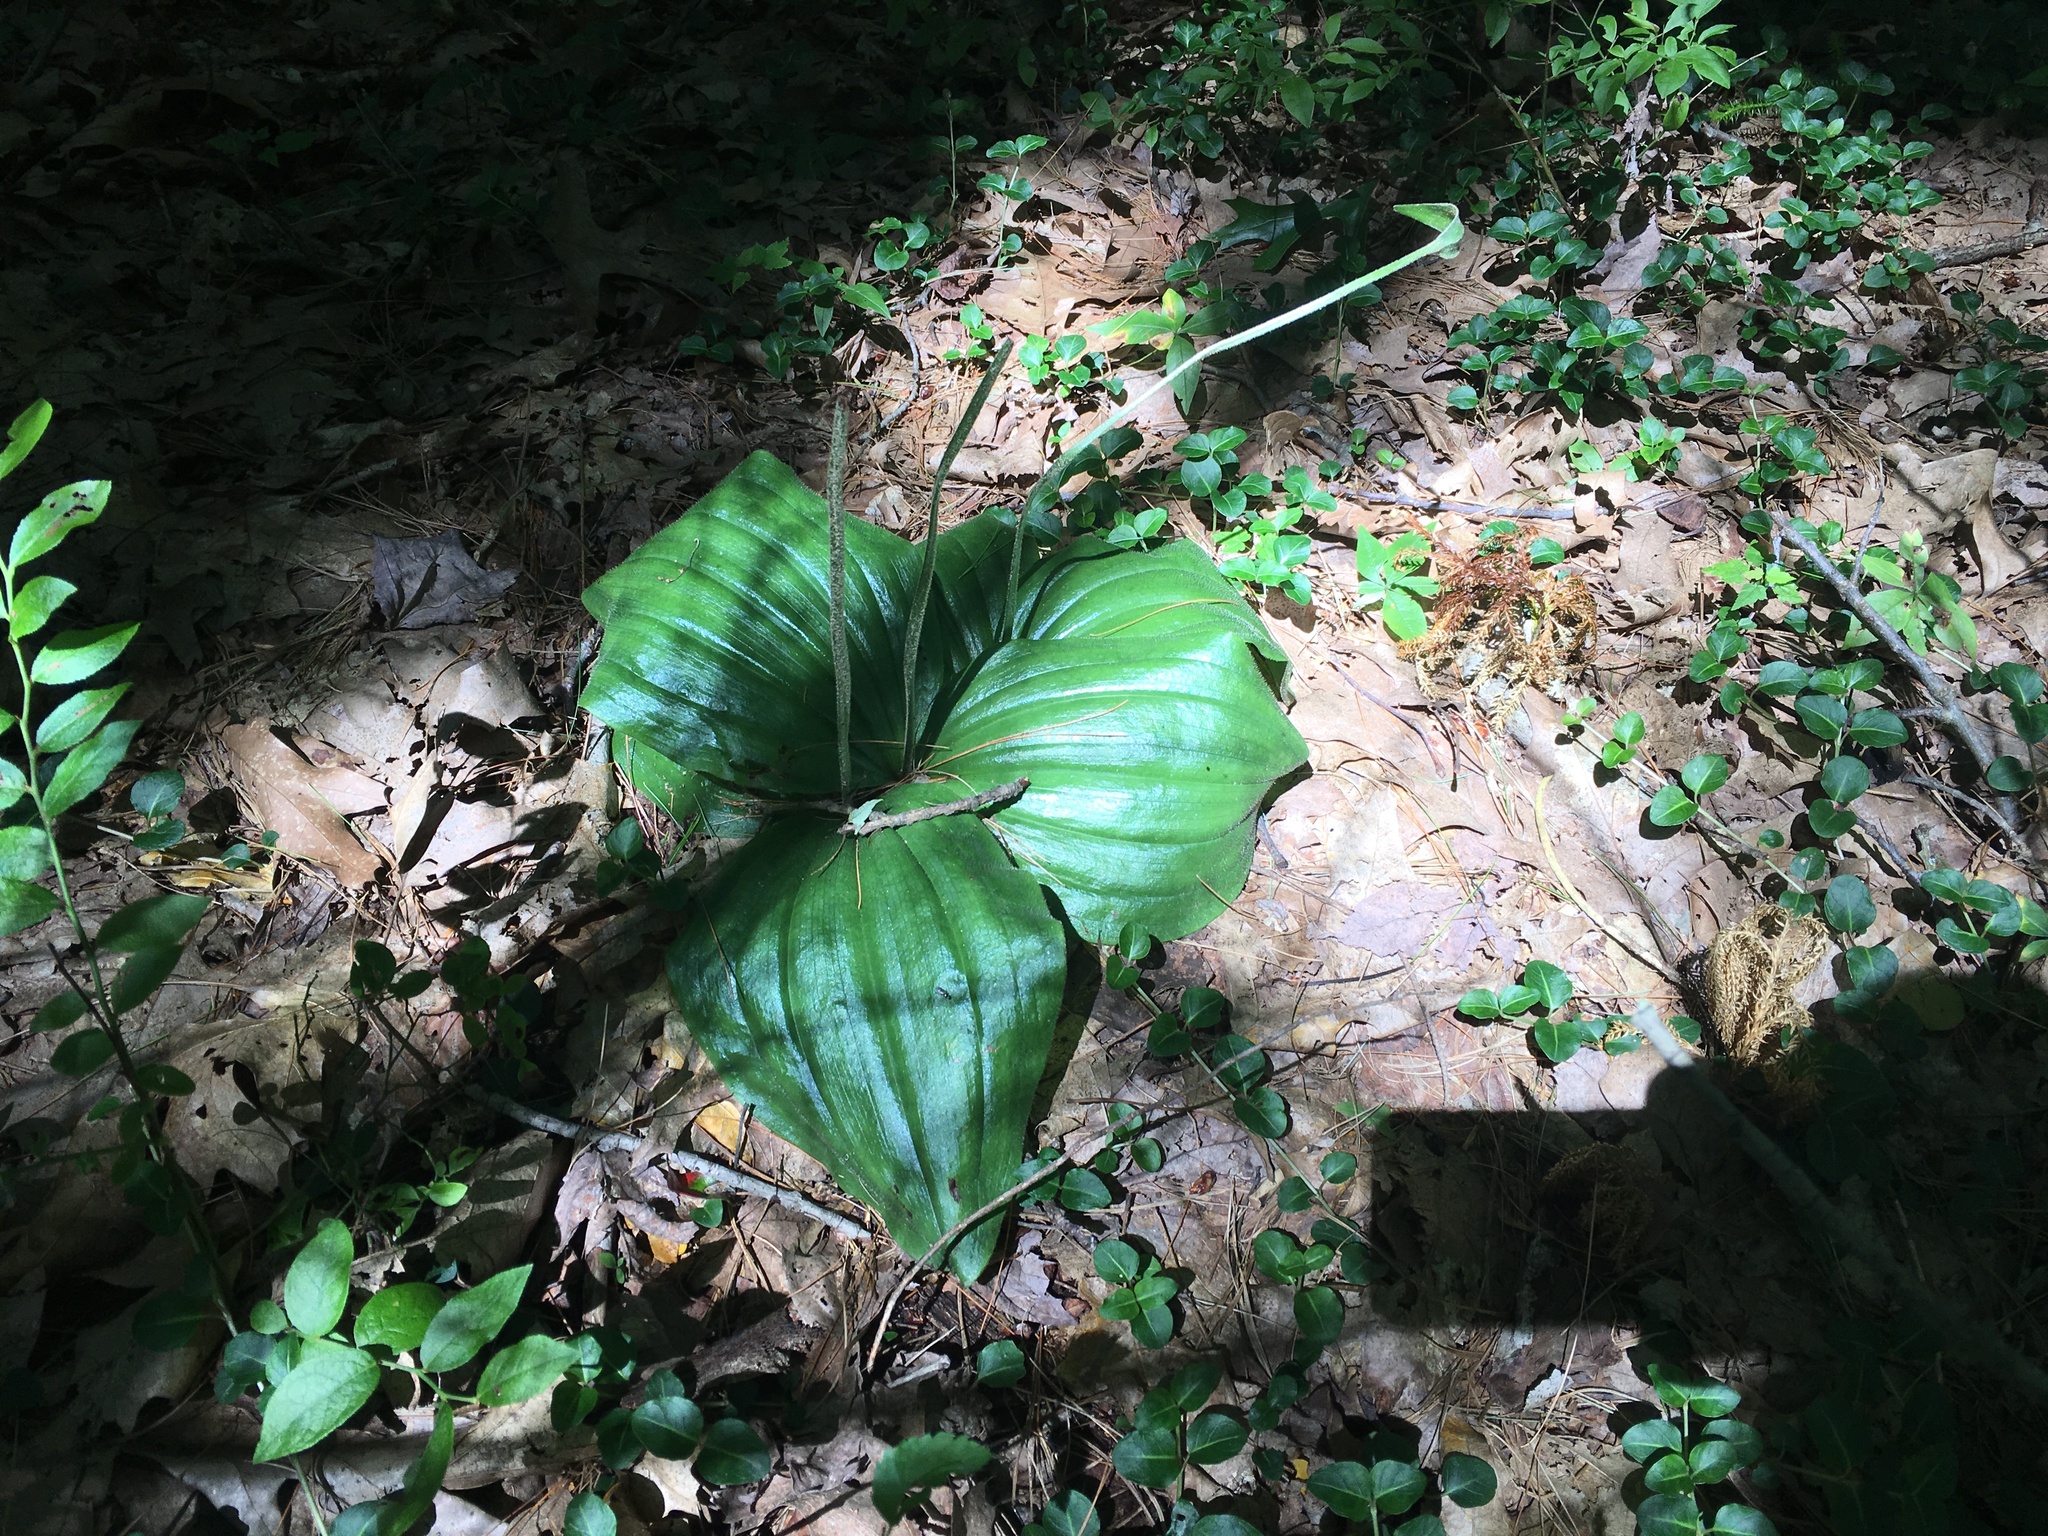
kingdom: Plantae
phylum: Tracheophyta
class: Liliopsida
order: Asparagales
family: Orchidaceae
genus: Cypripedium
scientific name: Cypripedium acaule
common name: Pink lady's-slipper
